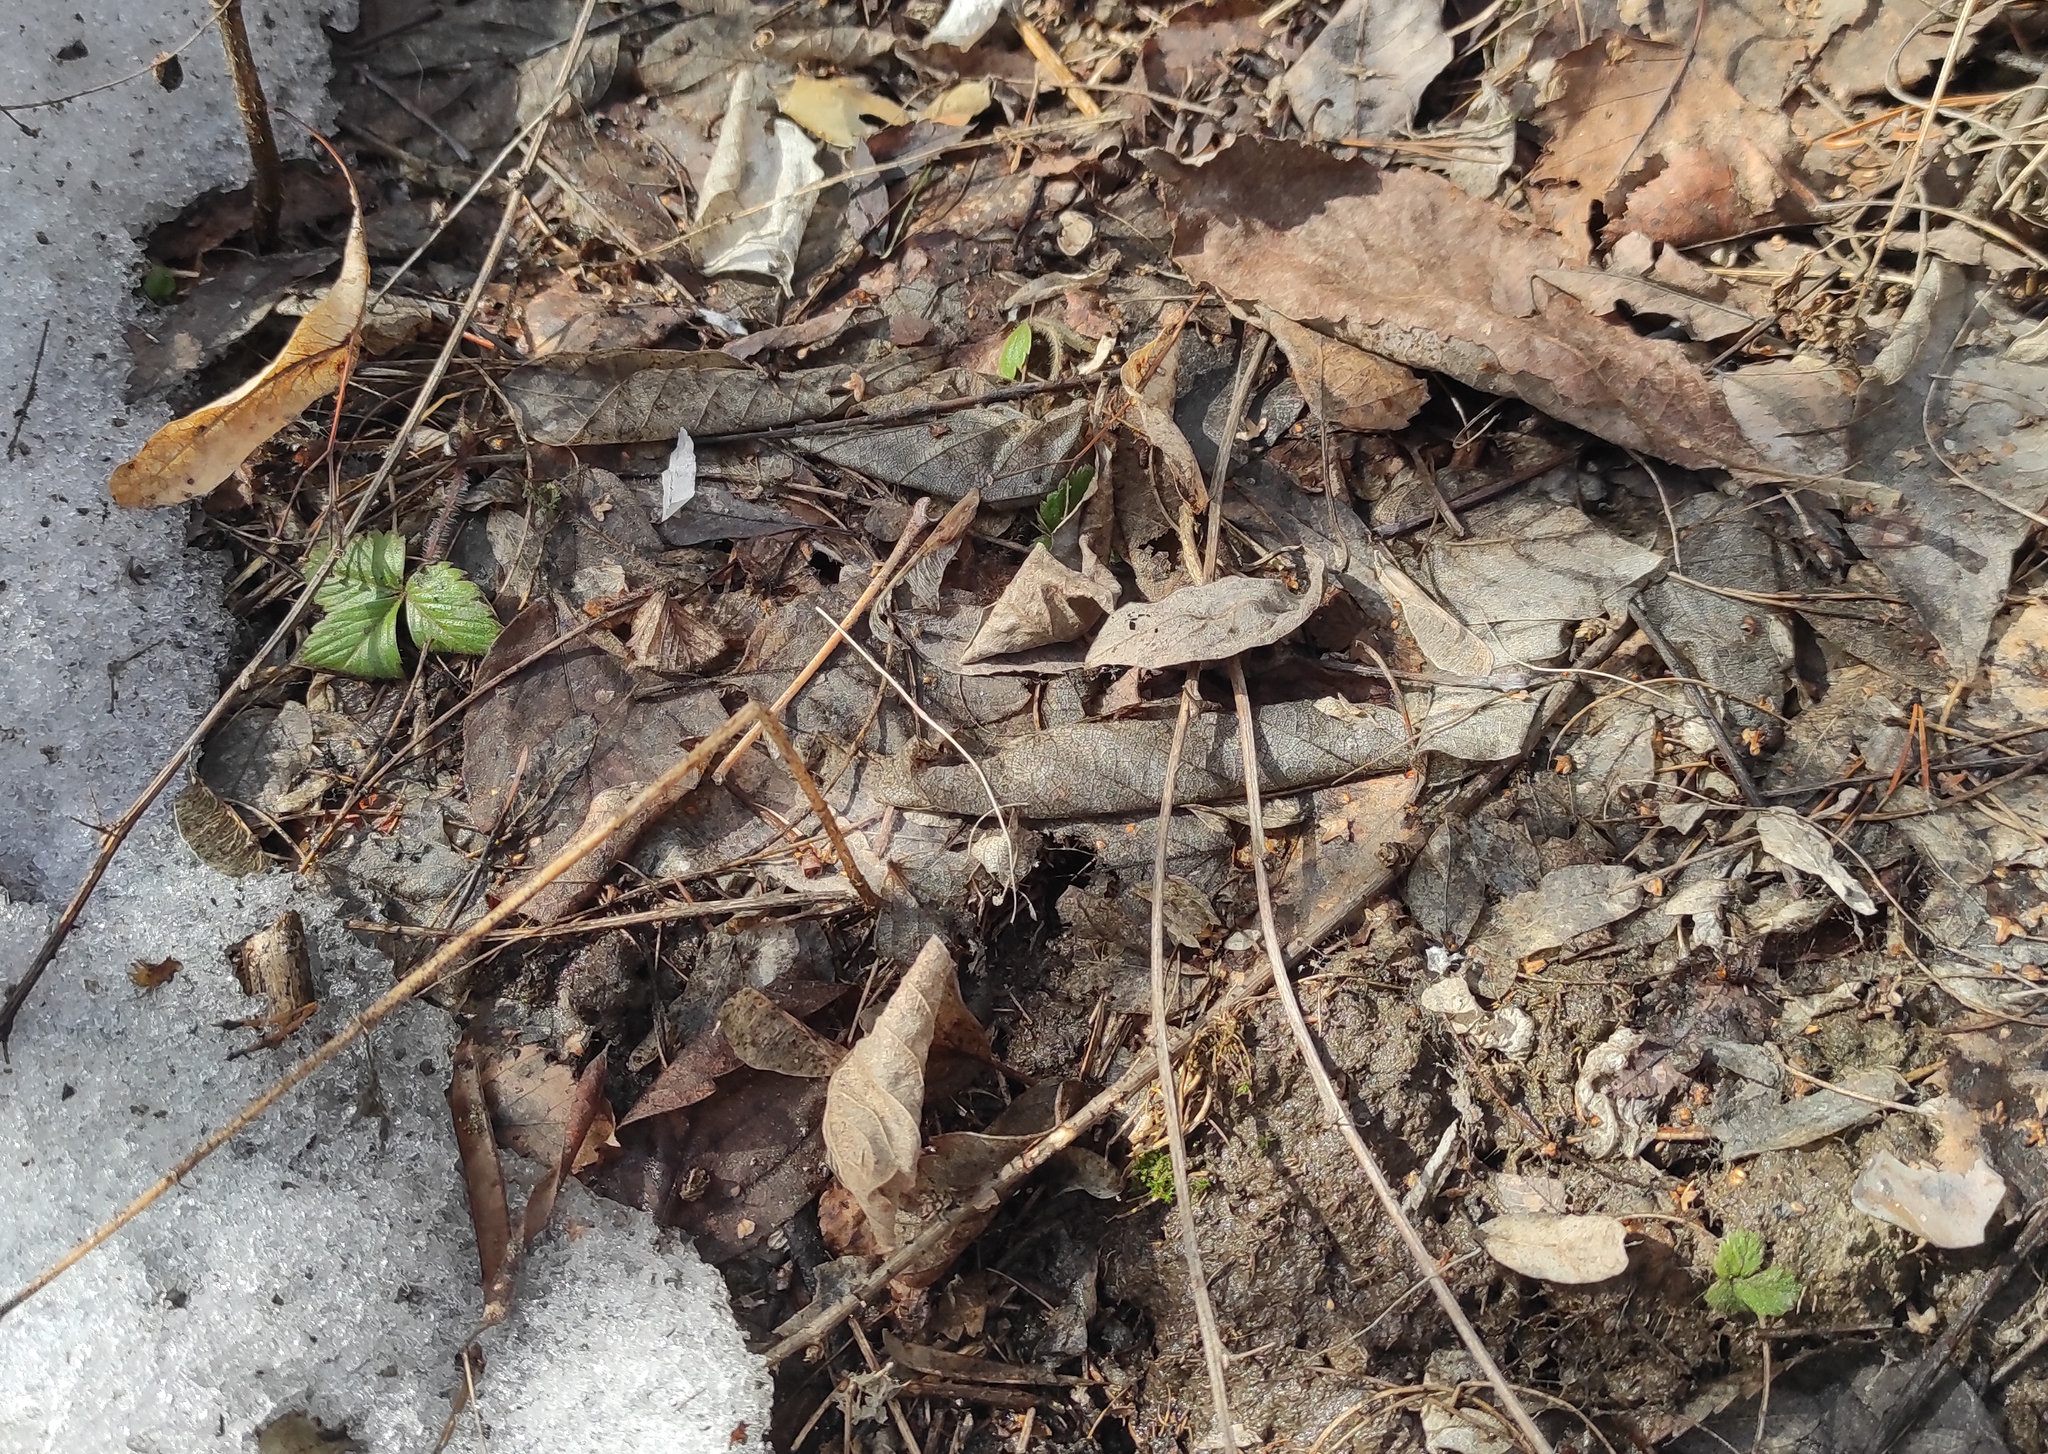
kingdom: Plantae
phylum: Tracheophyta
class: Magnoliopsida
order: Rosales
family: Rosaceae
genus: Fragaria
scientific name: Fragaria vesca
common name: Wild strawberry
